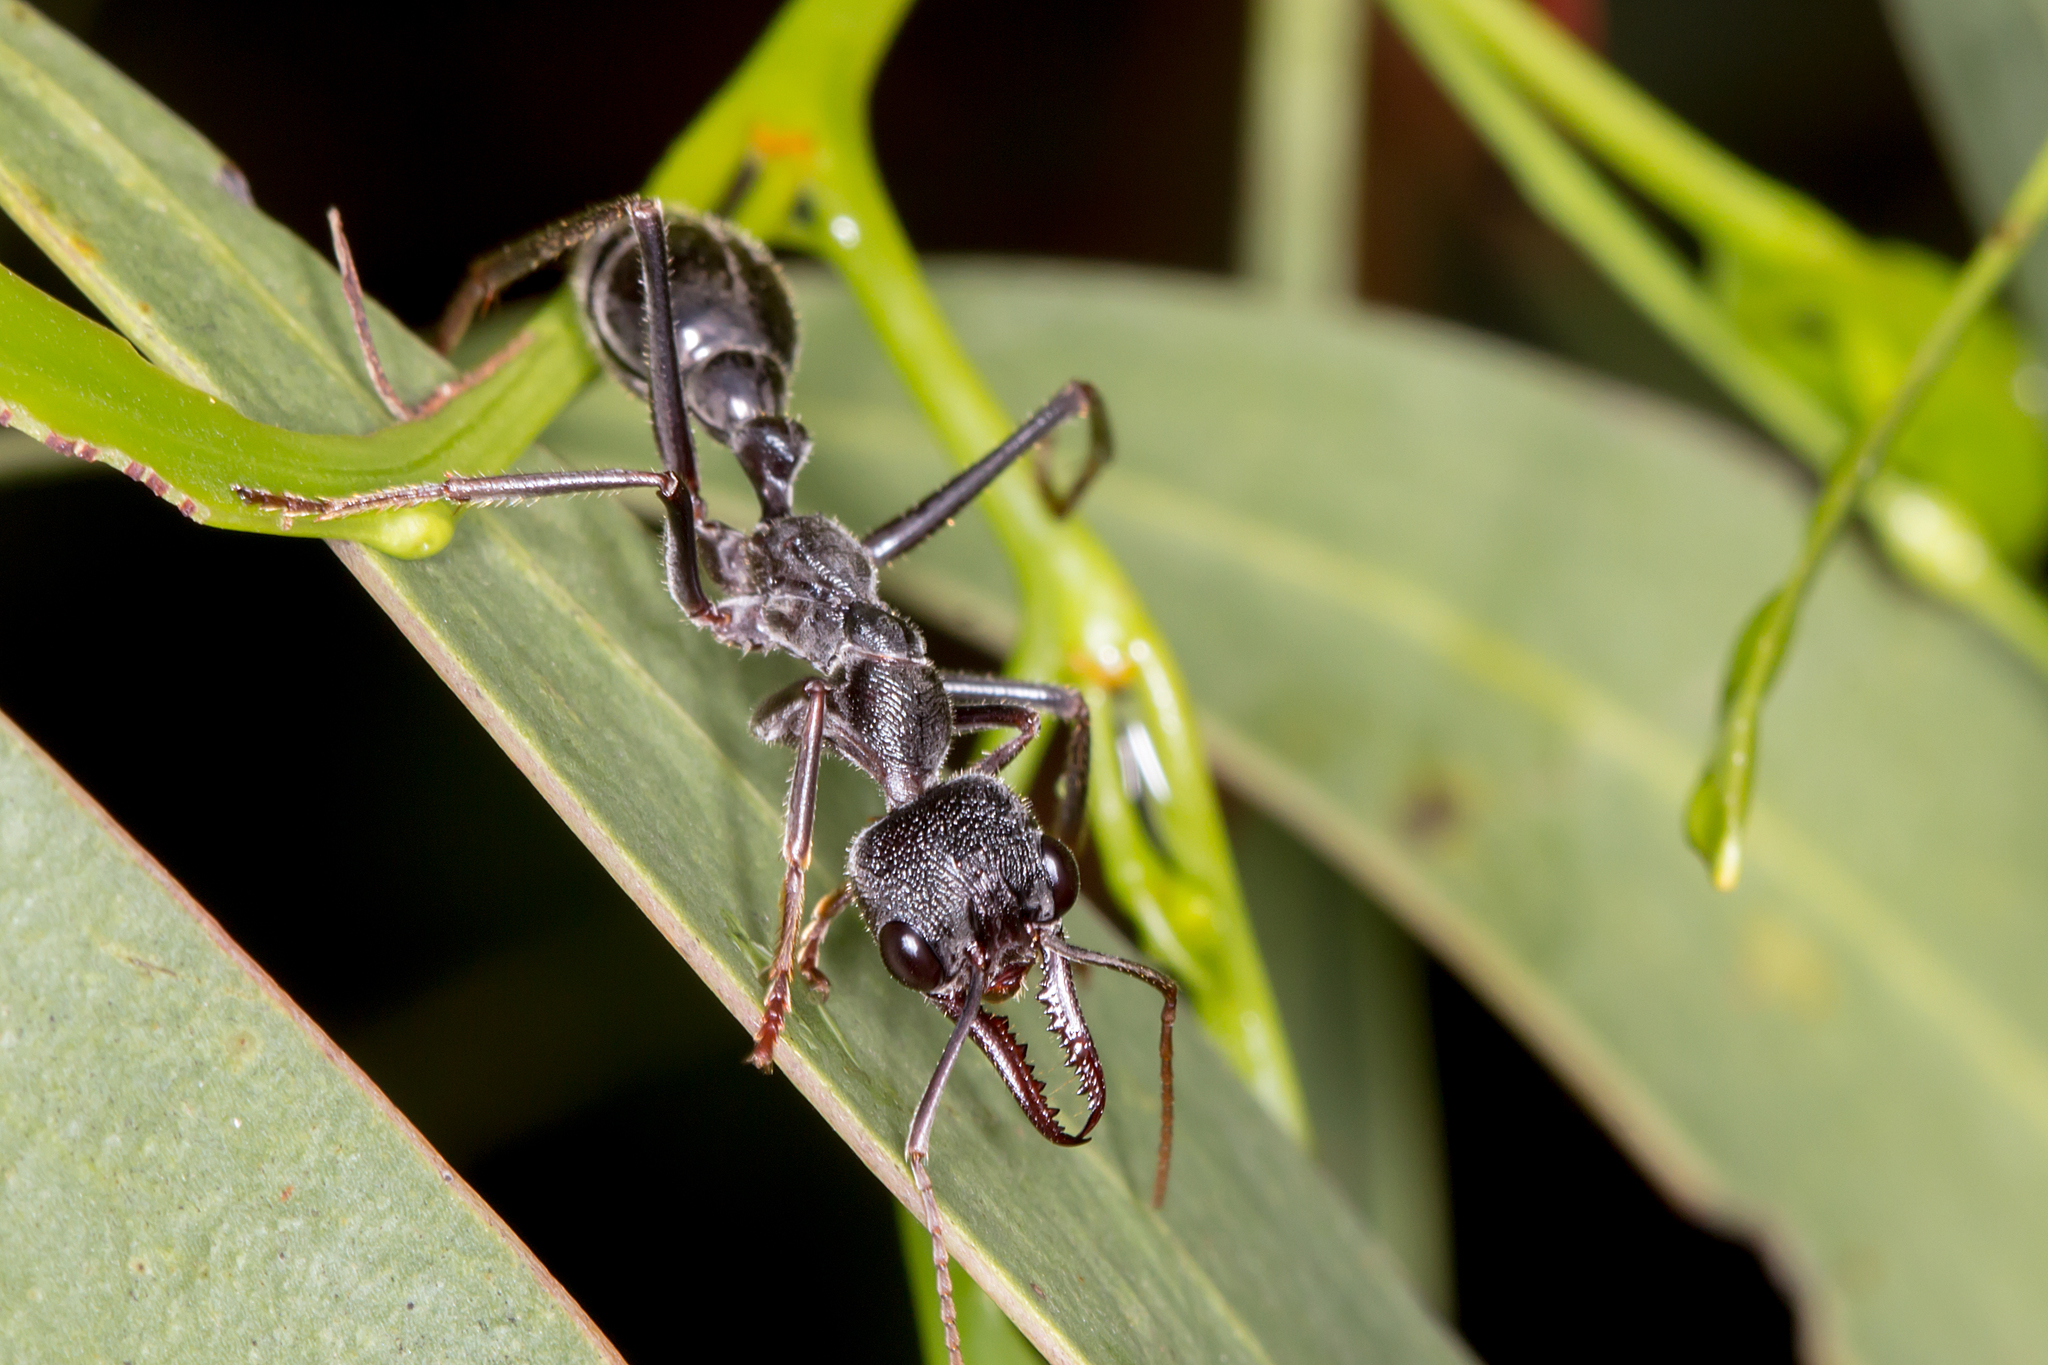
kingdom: Animalia
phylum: Arthropoda
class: Insecta
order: Hymenoptera
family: Formicidae
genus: Myrmecia
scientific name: Myrmecia pyriformis
